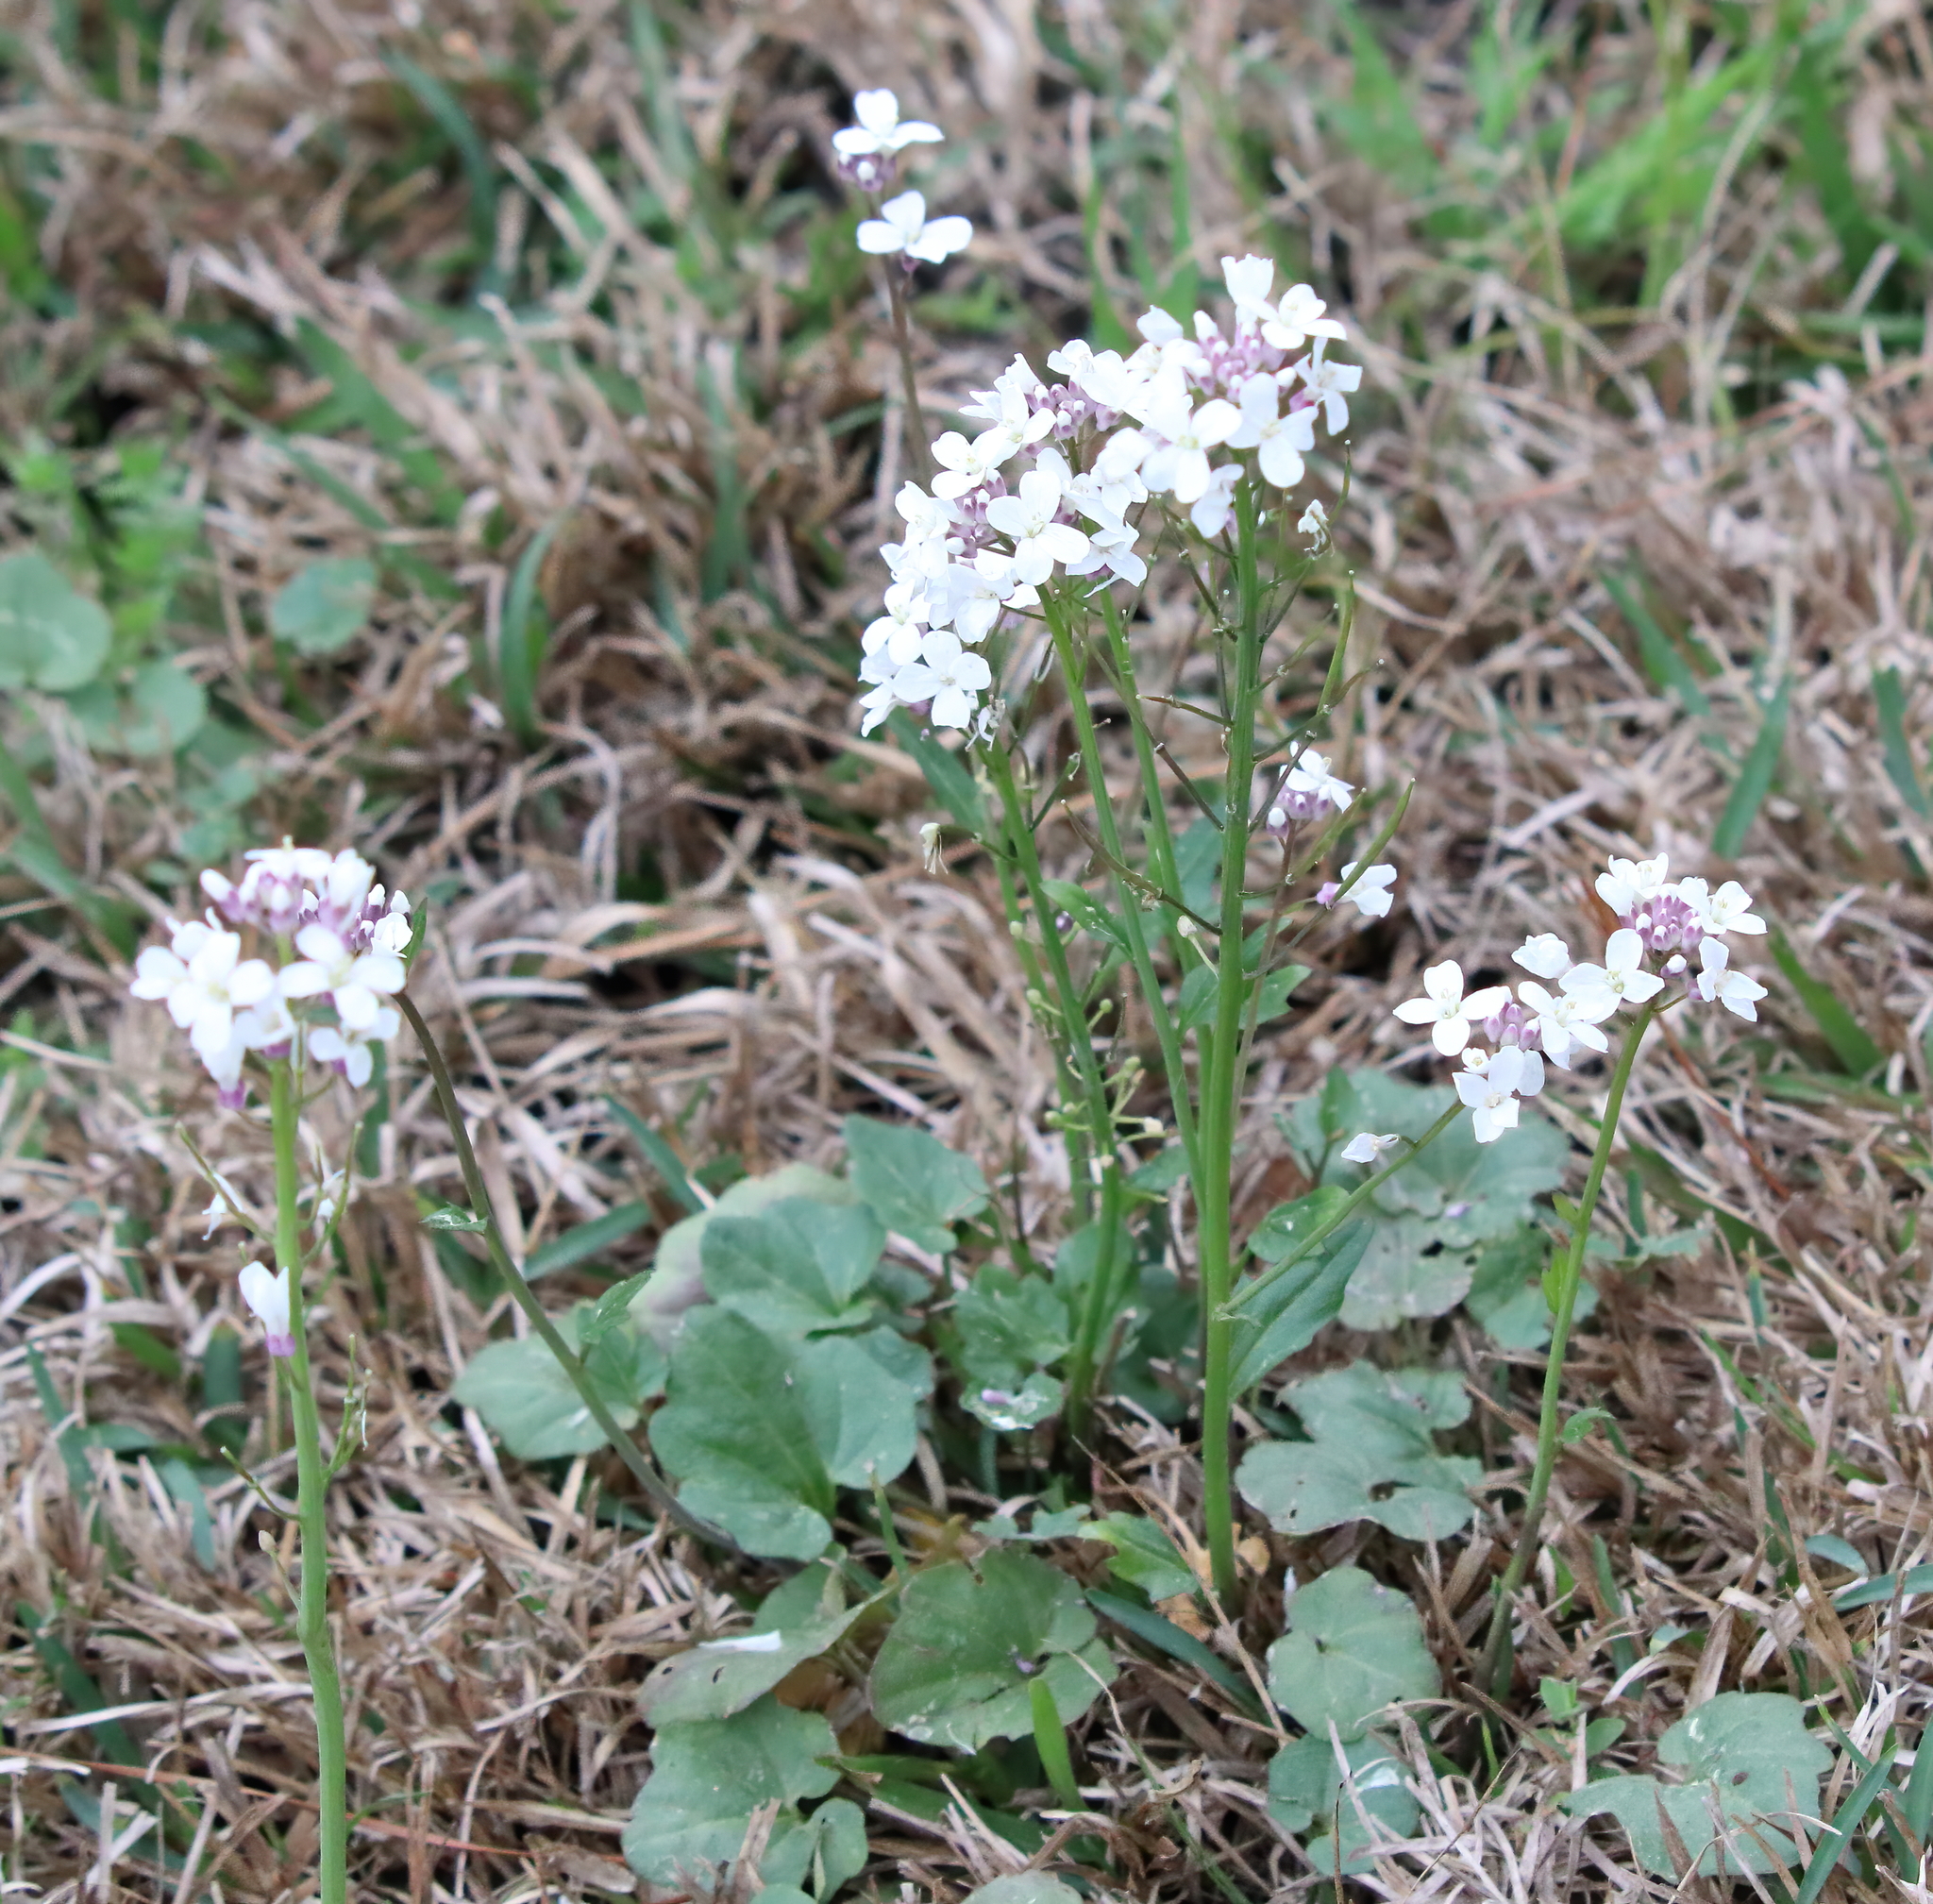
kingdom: Plantae
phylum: Tracheophyta
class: Magnoliopsida
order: Brassicales
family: Brassicaceae
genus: Cardamine
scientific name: Cardamine bulbosa
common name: Spring cress
